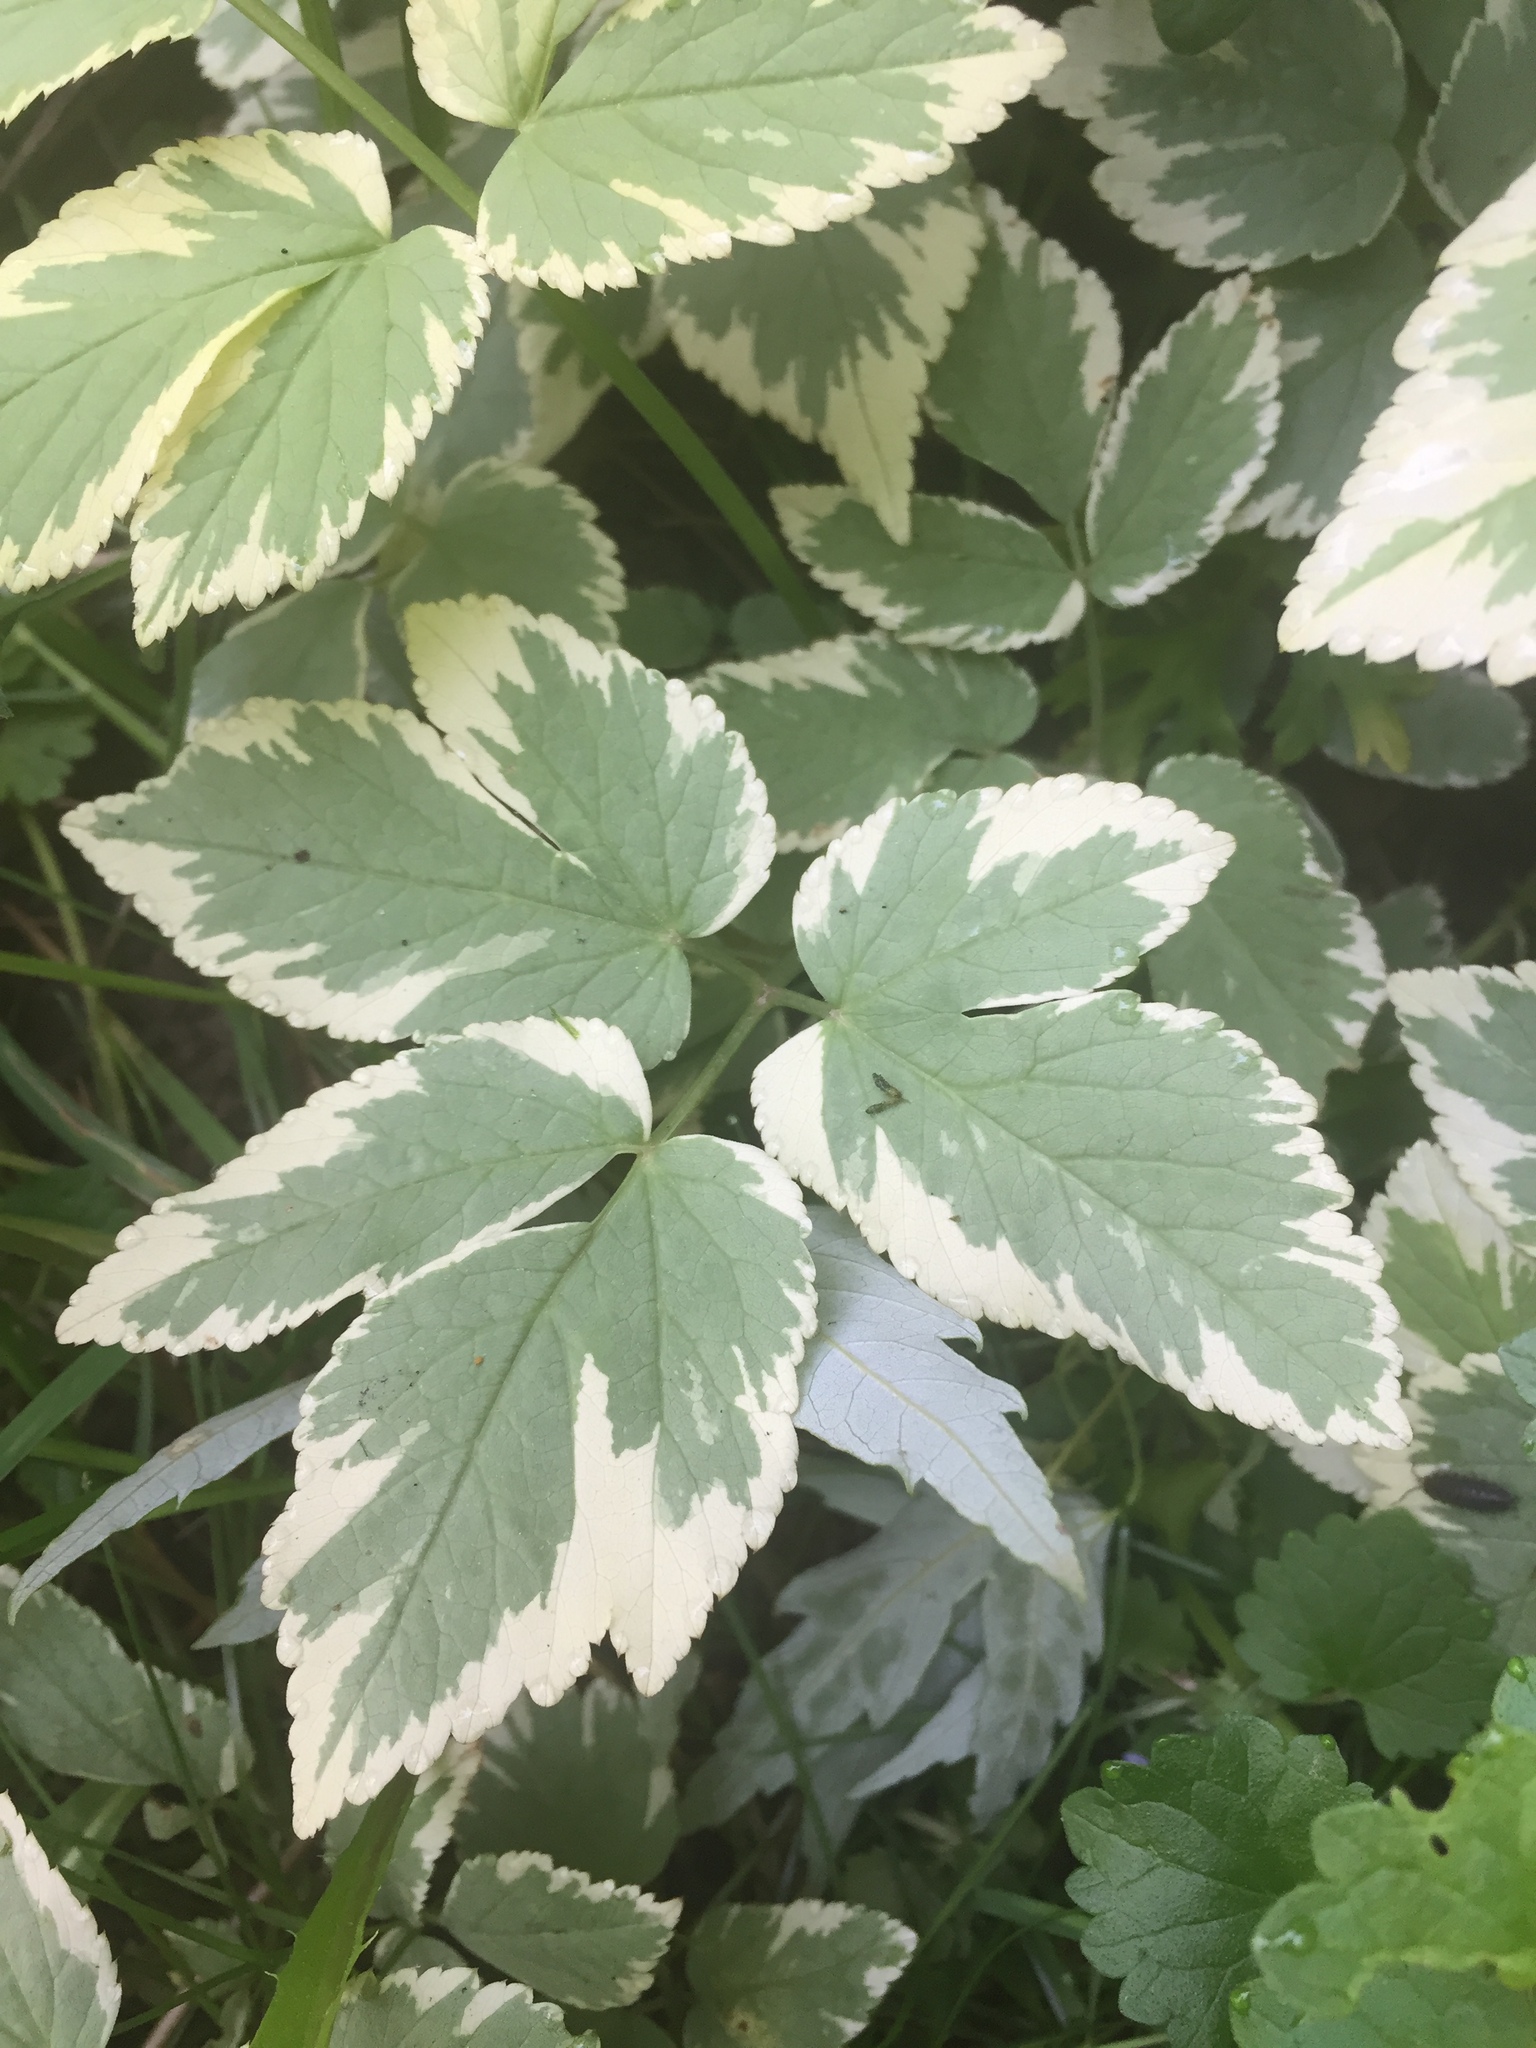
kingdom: Plantae
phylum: Tracheophyta
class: Magnoliopsida
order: Apiales
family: Apiaceae
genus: Aegopodium
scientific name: Aegopodium podagraria
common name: Ground-elder
